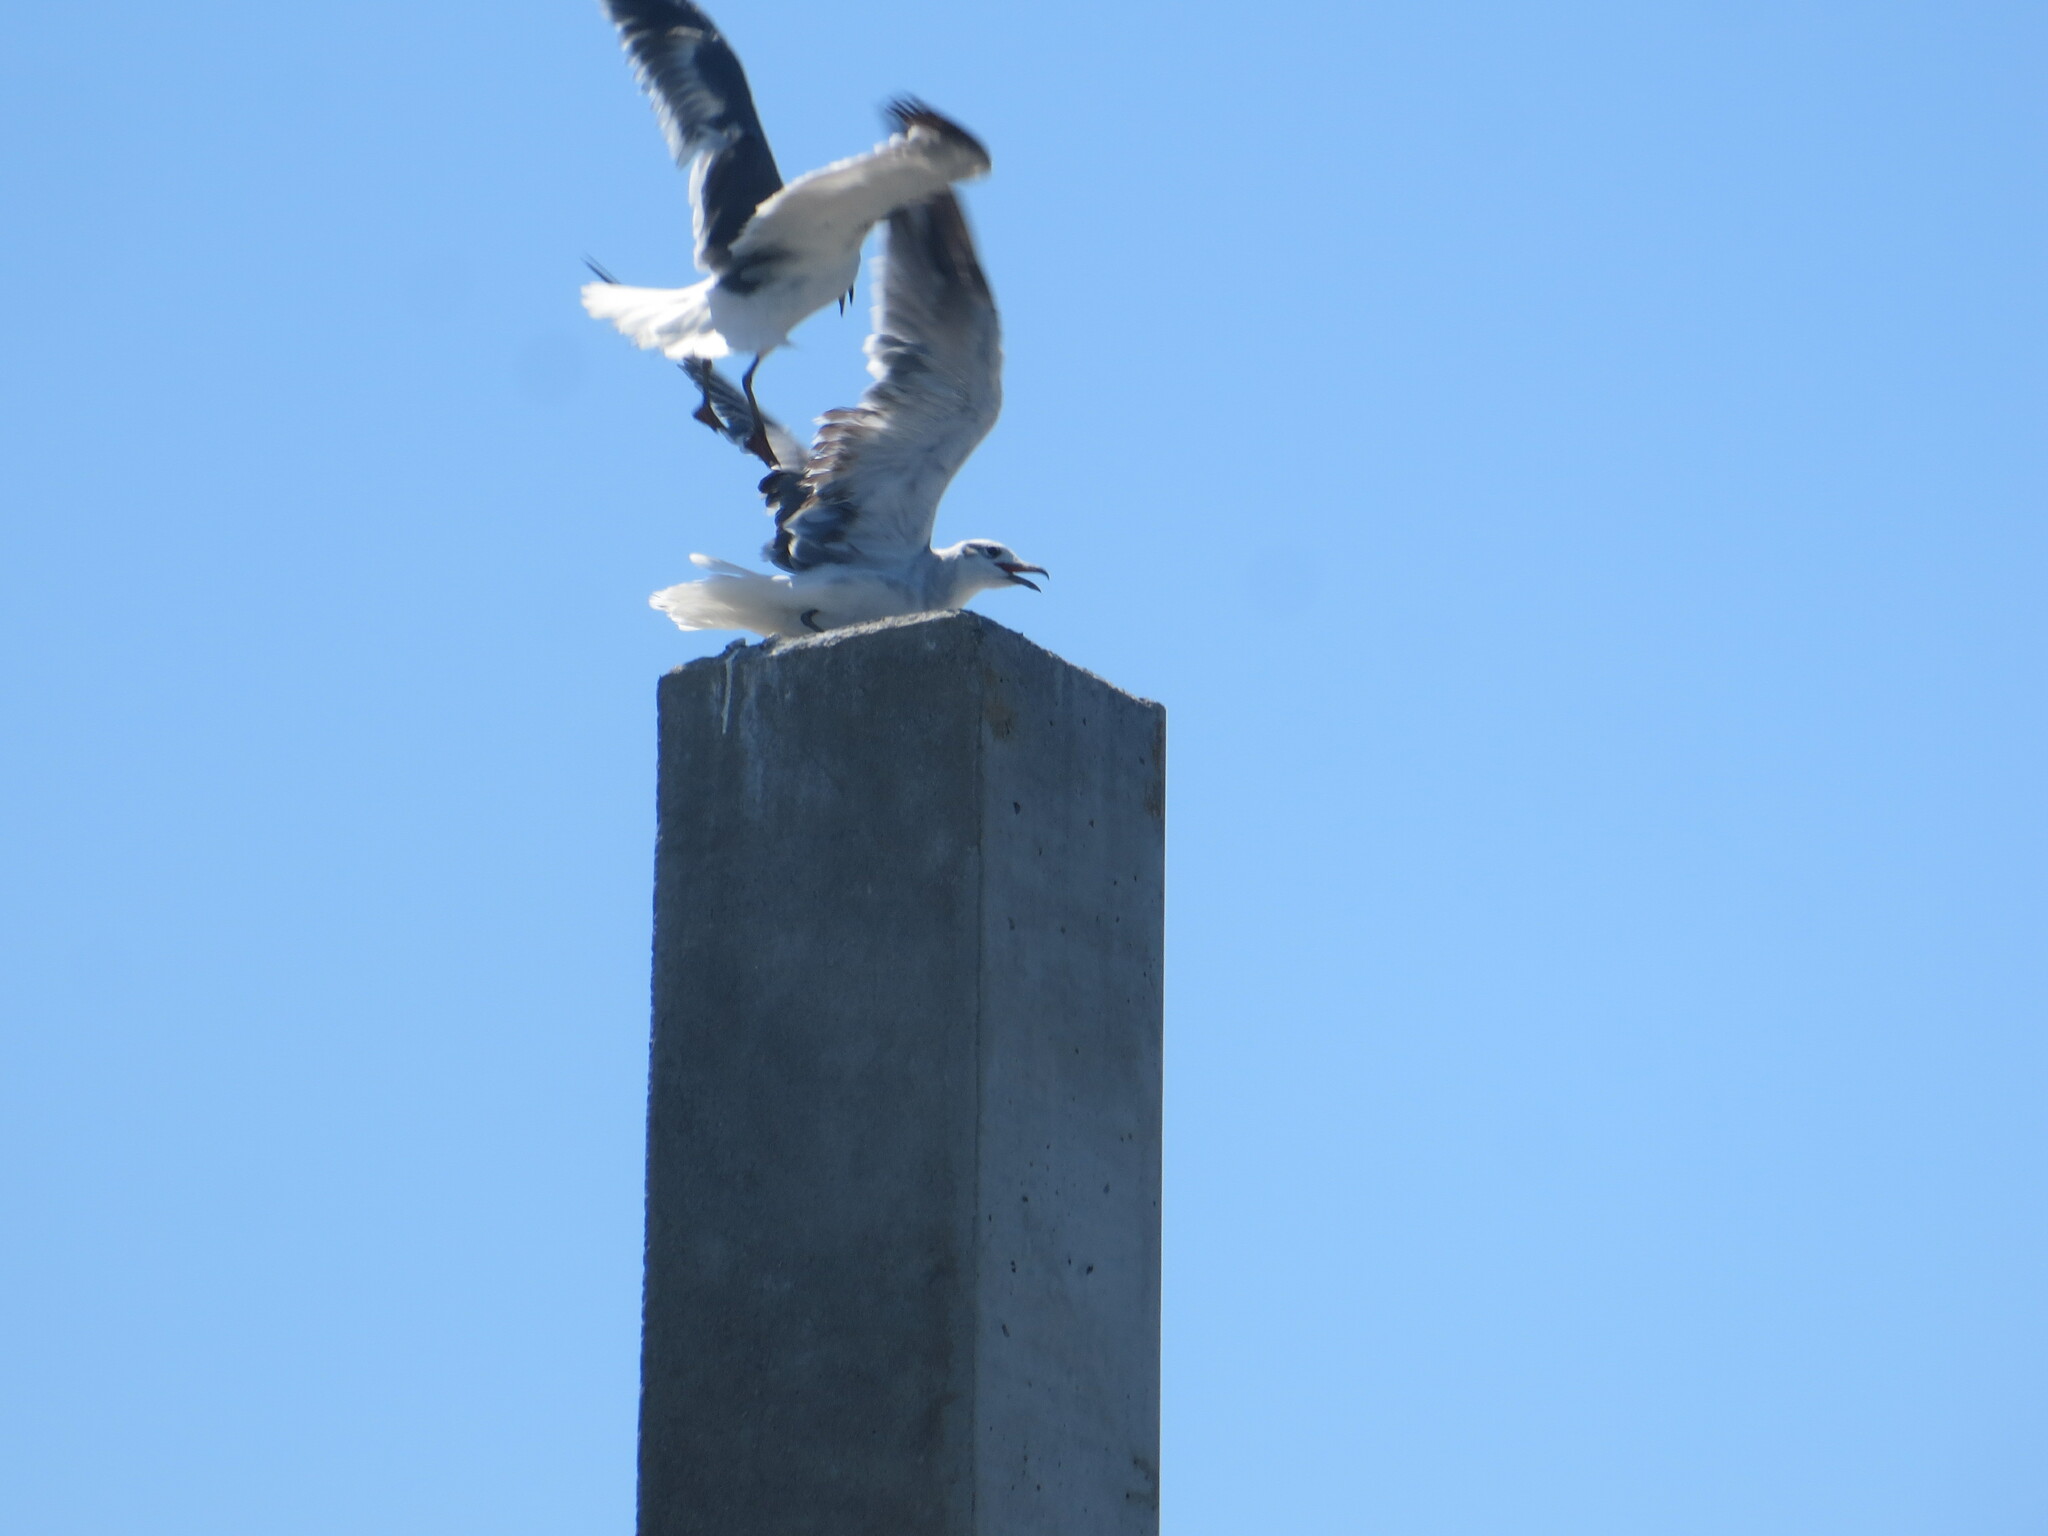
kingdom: Animalia
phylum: Chordata
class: Aves
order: Charadriiformes
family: Laridae
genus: Leucophaeus
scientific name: Leucophaeus atricilla
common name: Laughing gull
